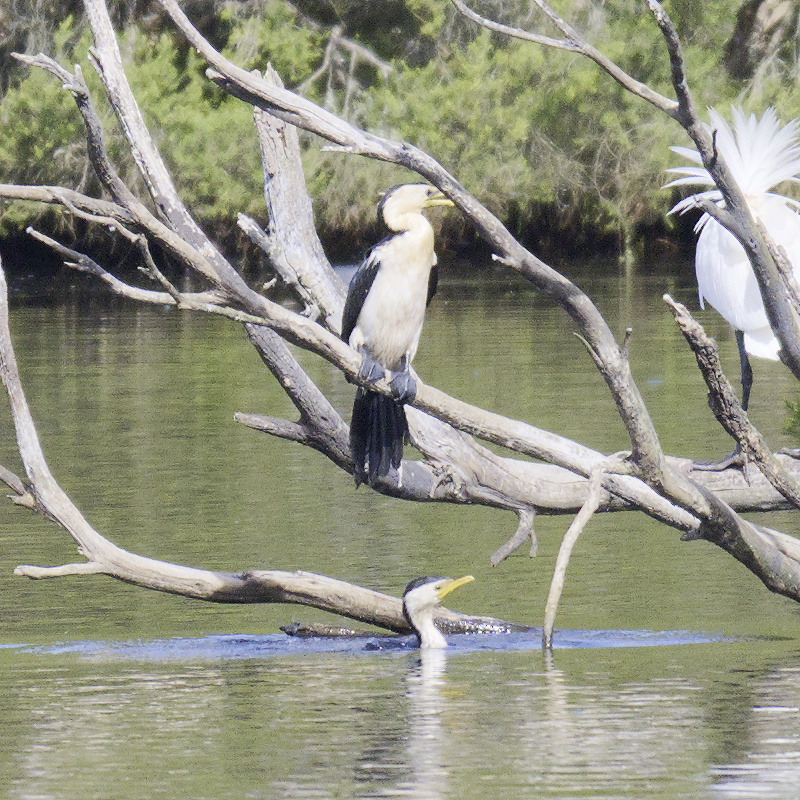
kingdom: Animalia
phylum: Chordata
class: Aves
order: Suliformes
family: Phalacrocoracidae
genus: Microcarbo
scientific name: Microcarbo melanoleucos
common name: Little pied cormorant
